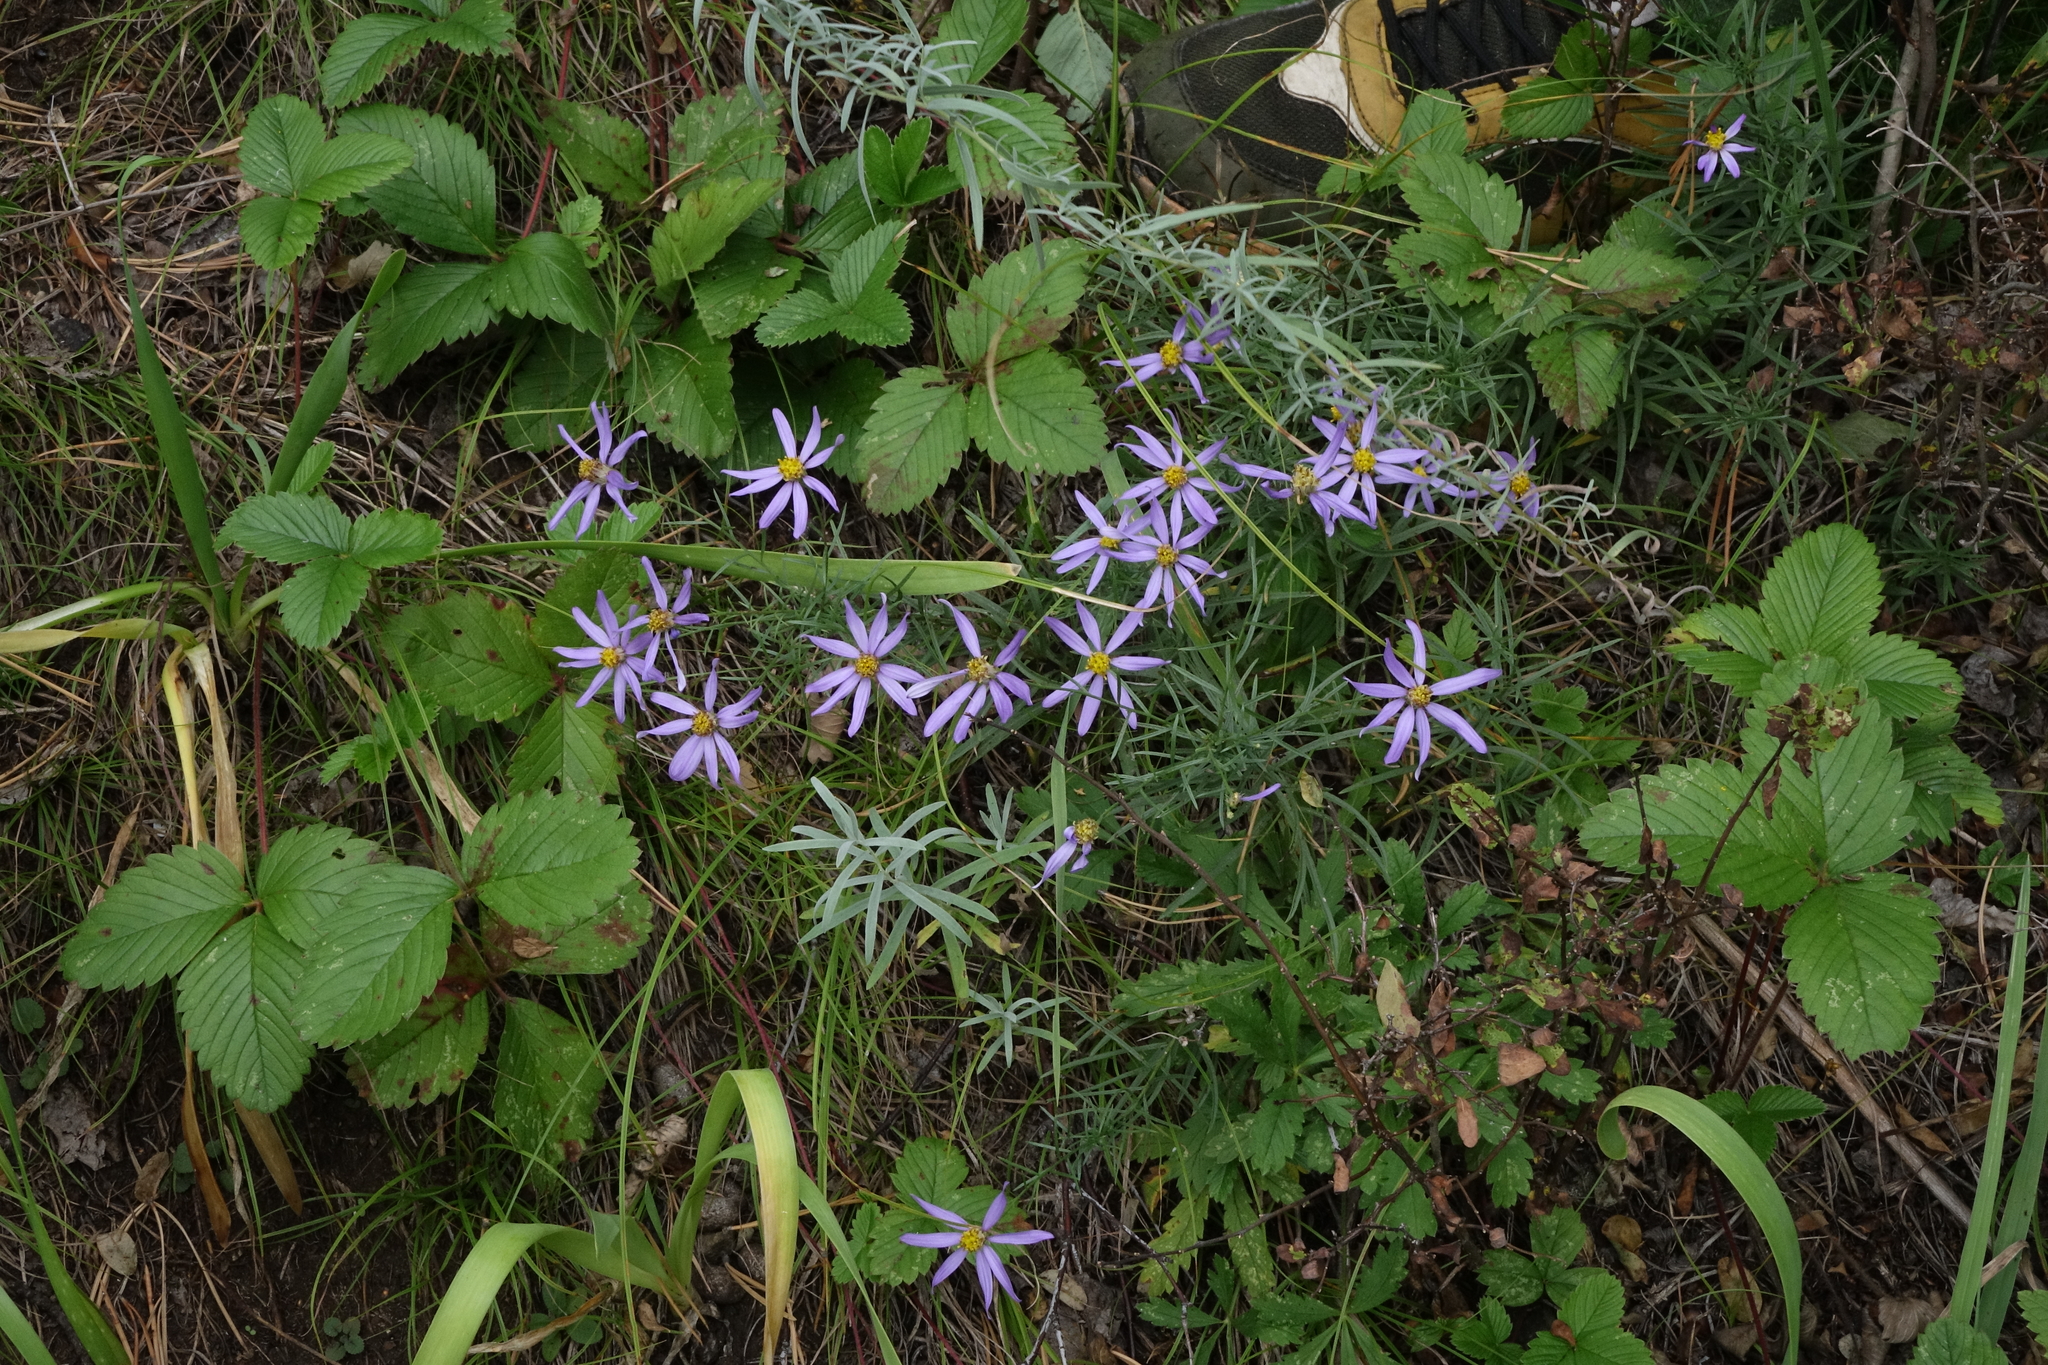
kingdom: Plantae
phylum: Tracheophyta
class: Magnoliopsida
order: Asterales
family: Asteraceae
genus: Galatella
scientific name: Galatella angustissima
